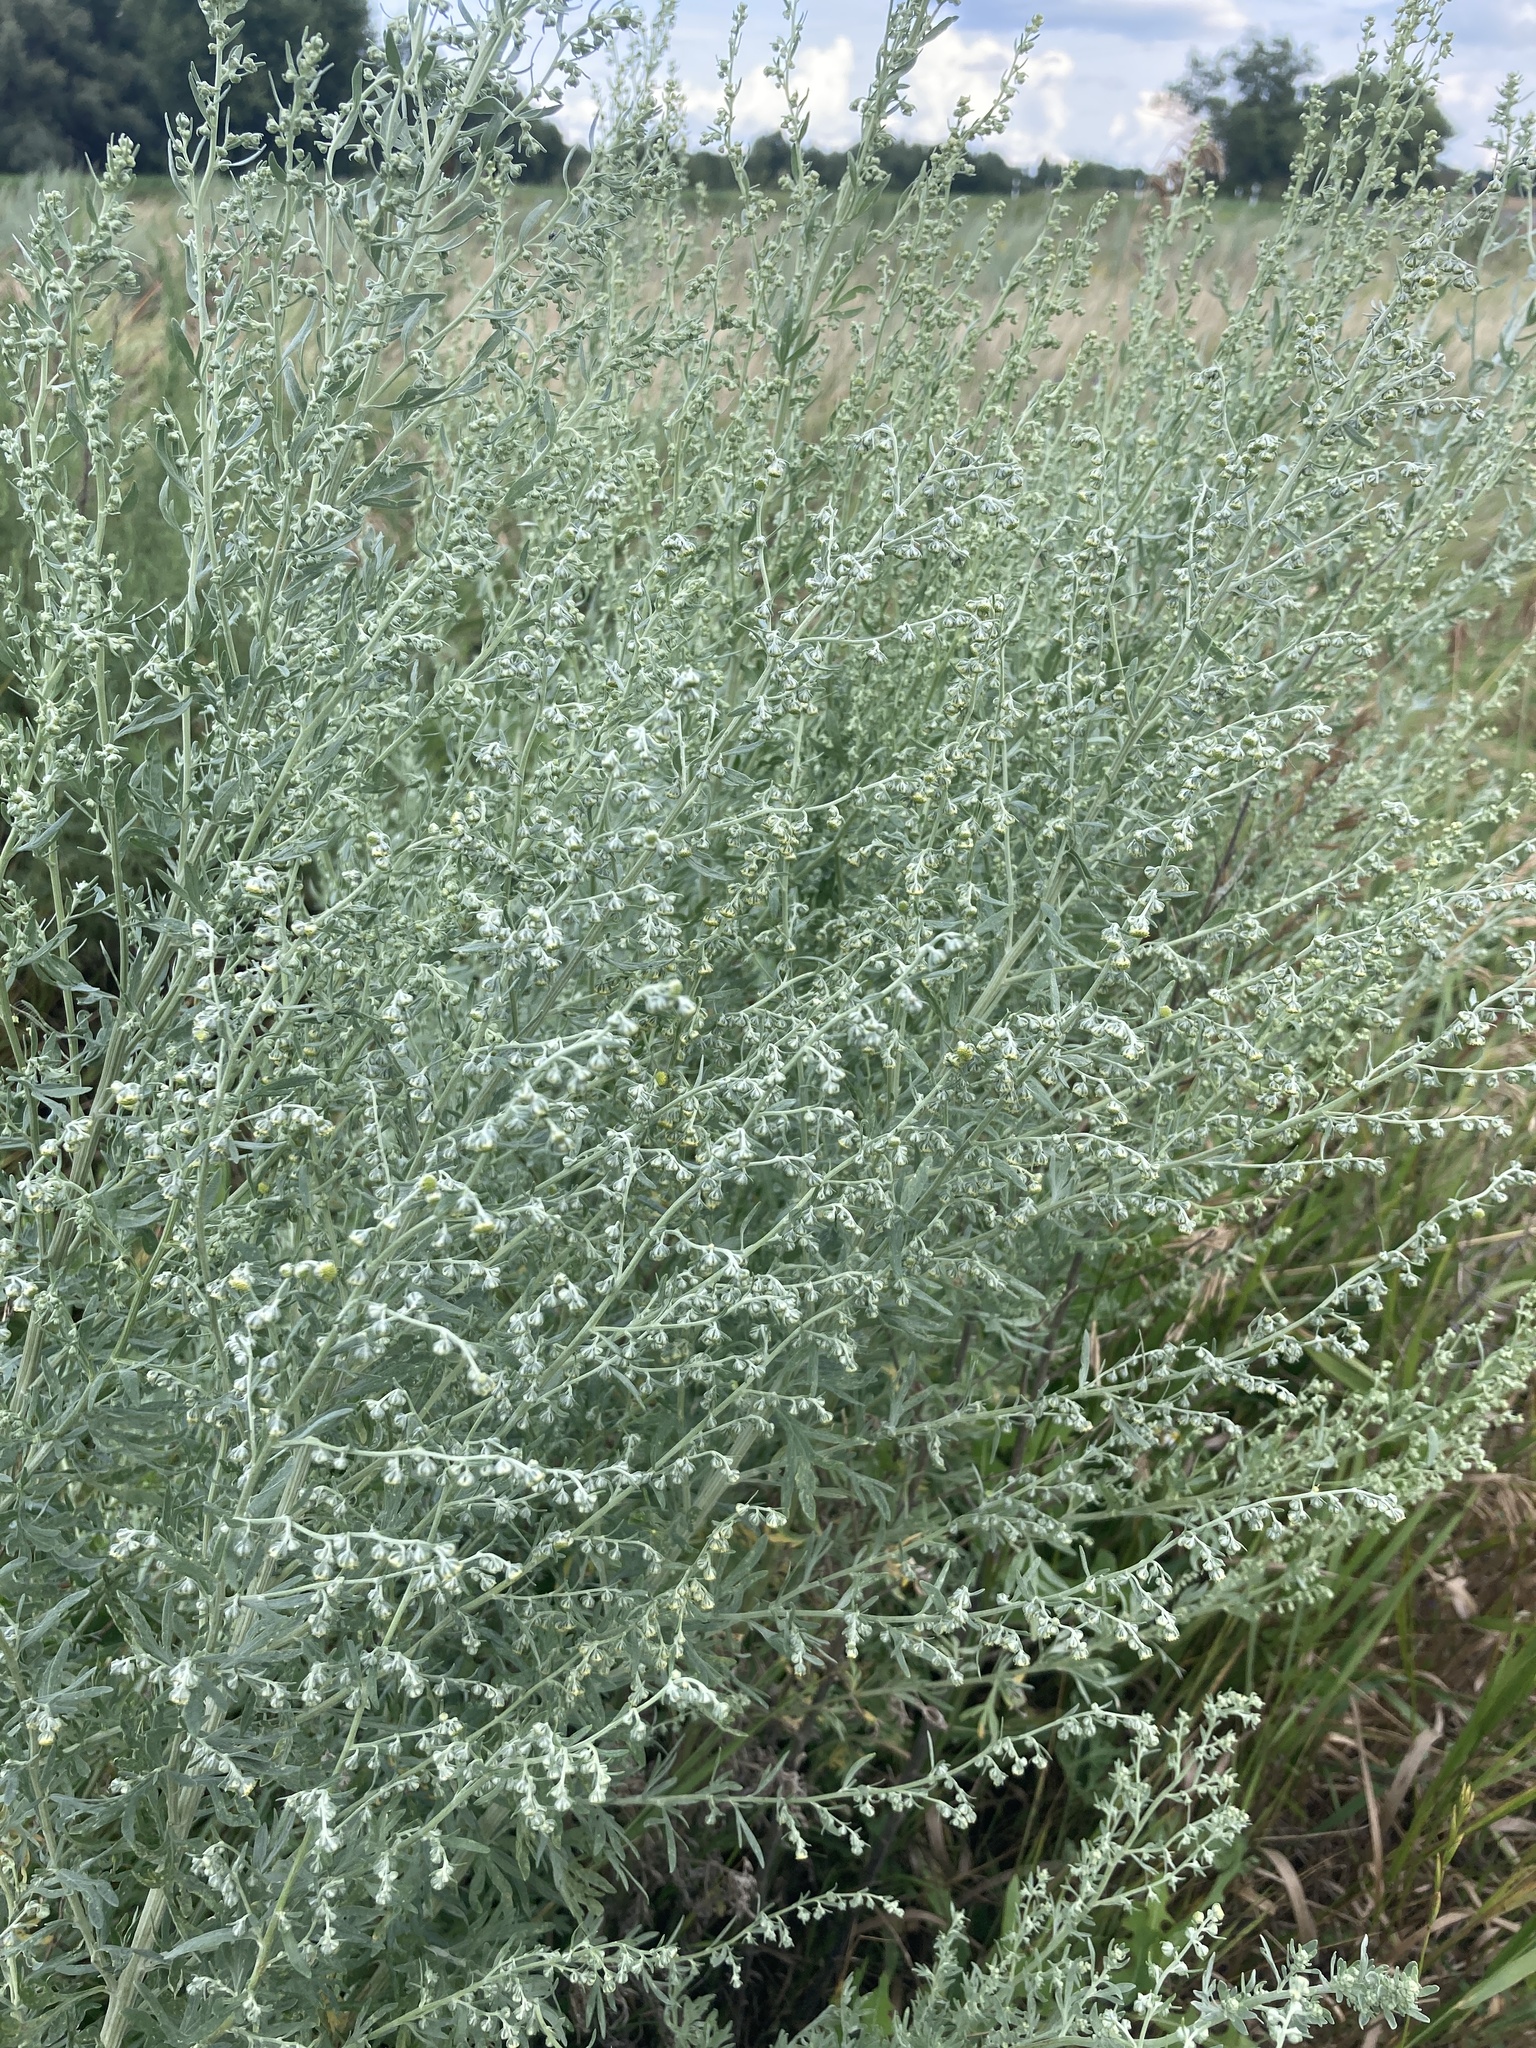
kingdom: Plantae
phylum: Tracheophyta
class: Magnoliopsida
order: Asterales
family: Asteraceae
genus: Artemisia
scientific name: Artemisia absinthium
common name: Wormwood
